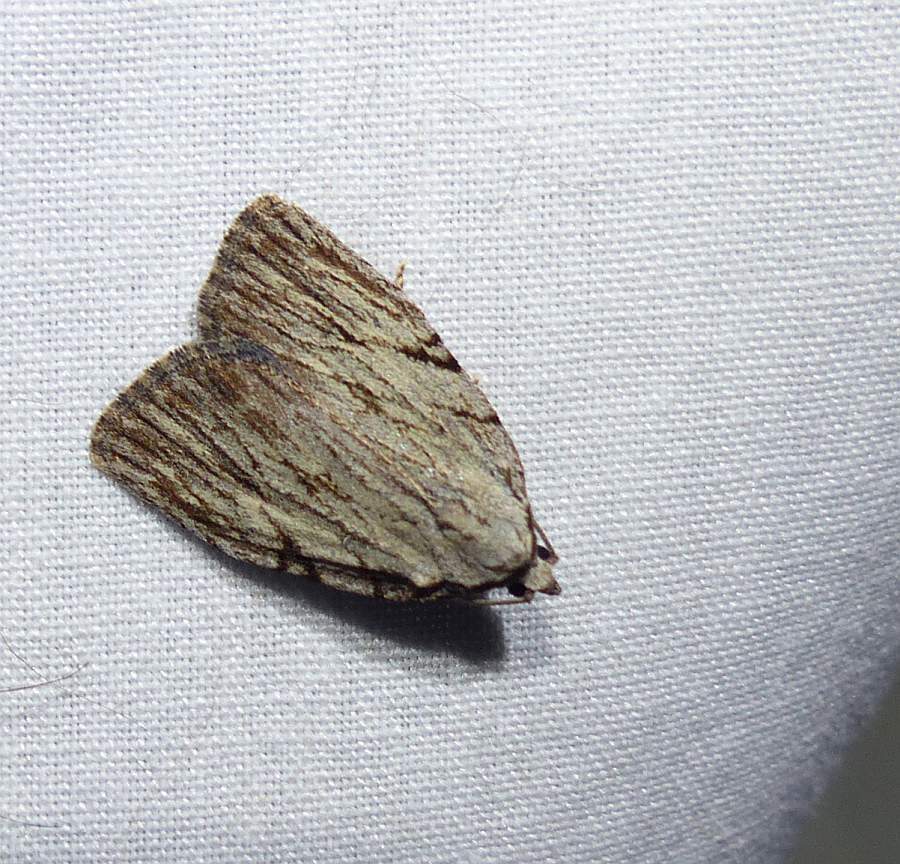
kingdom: Animalia
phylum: Arthropoda
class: Insecta
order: Lepidoptera
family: Noctuidae
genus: Balsa
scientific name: Balsa tristrigella
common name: Three-lined balsa moth
